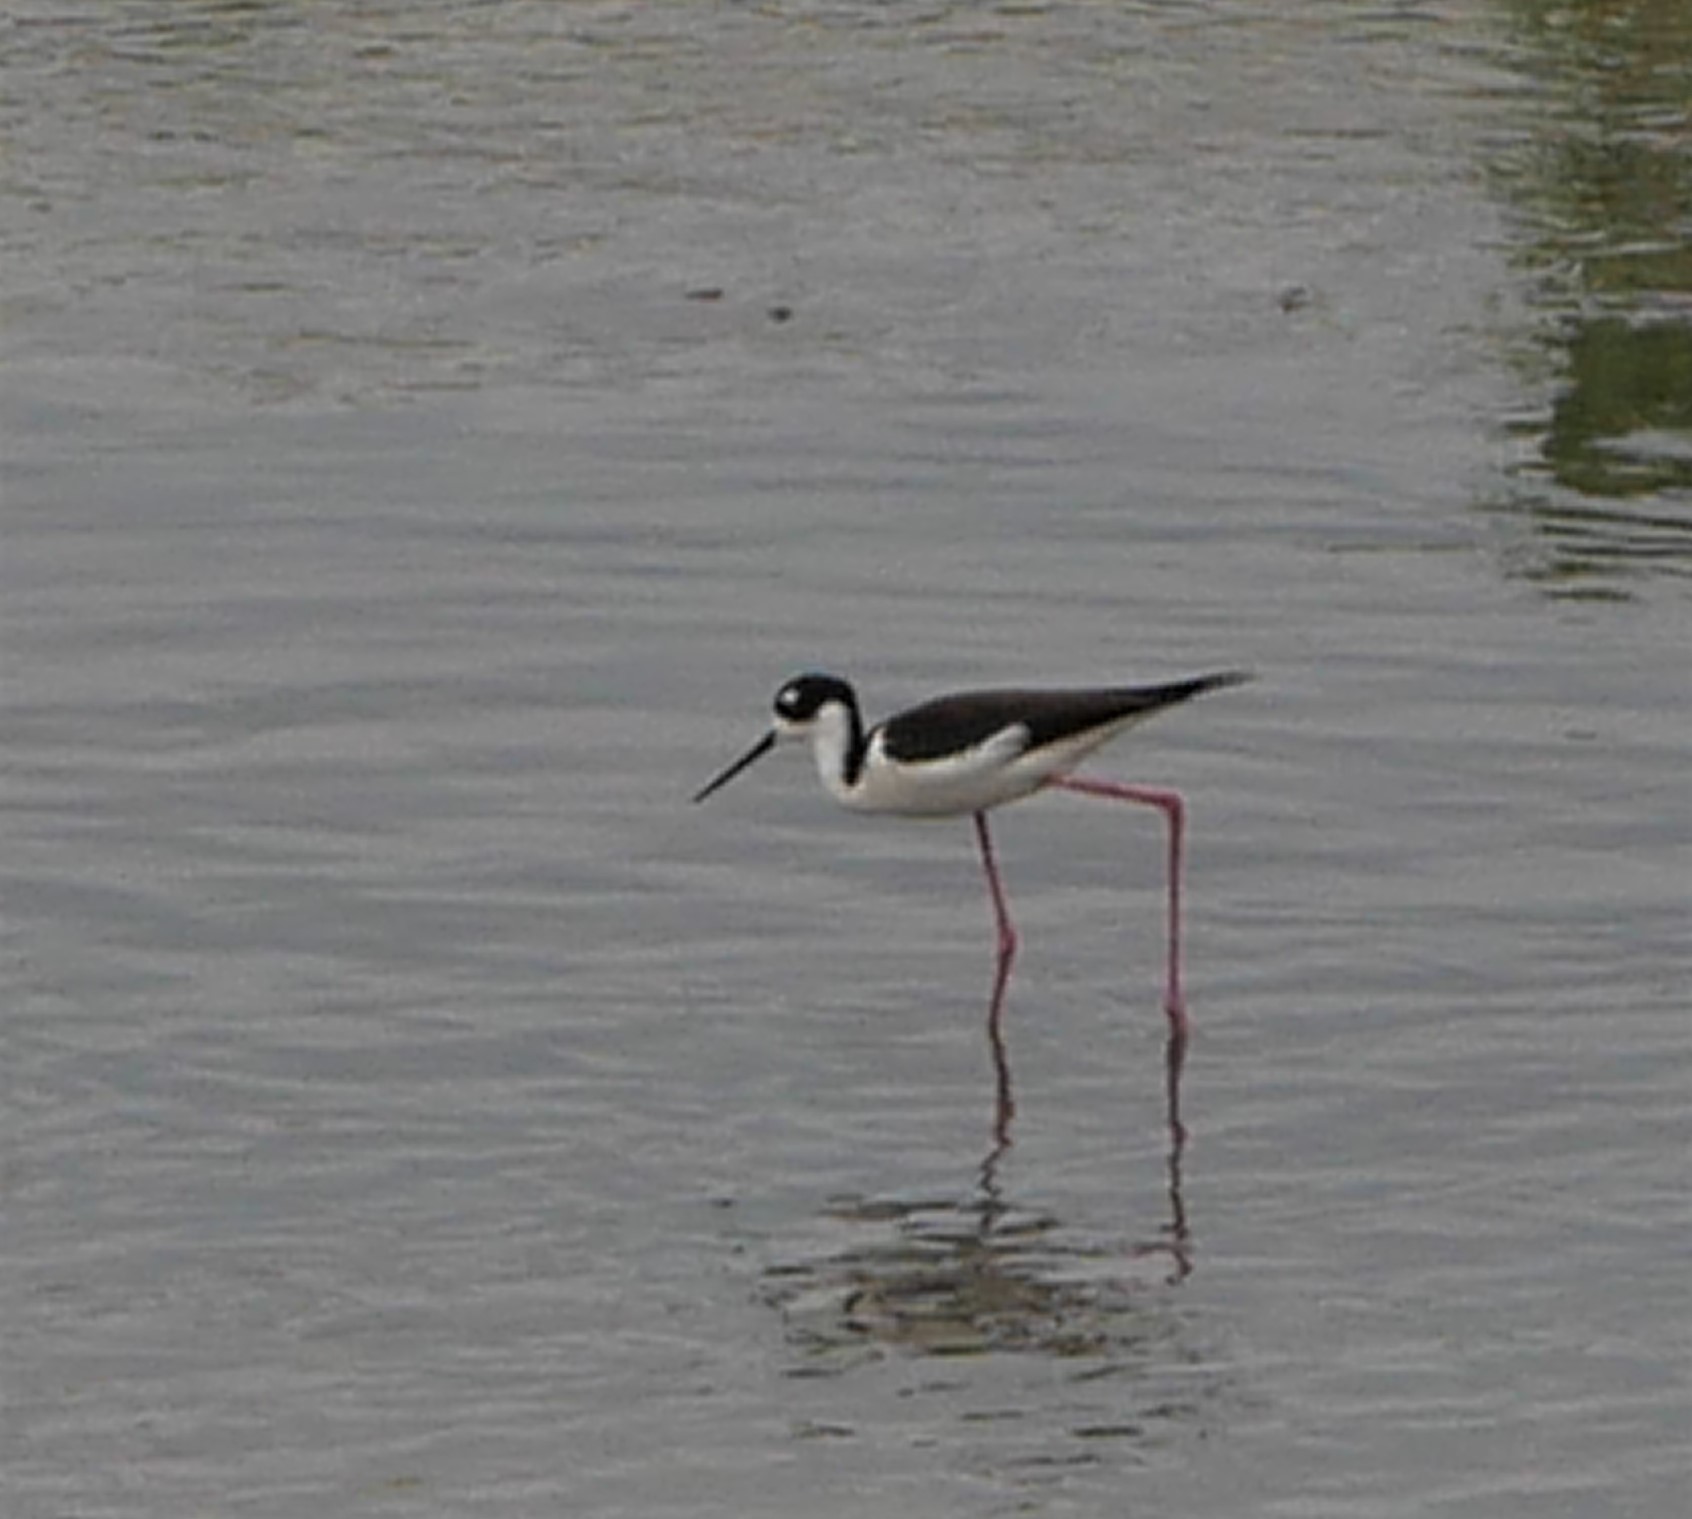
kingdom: Animalia
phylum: Chordata
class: Aves
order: Charadriiformes
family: Recurvirostridae
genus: Himantopus
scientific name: Himantopus mexicanus
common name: Black-necked stilt
